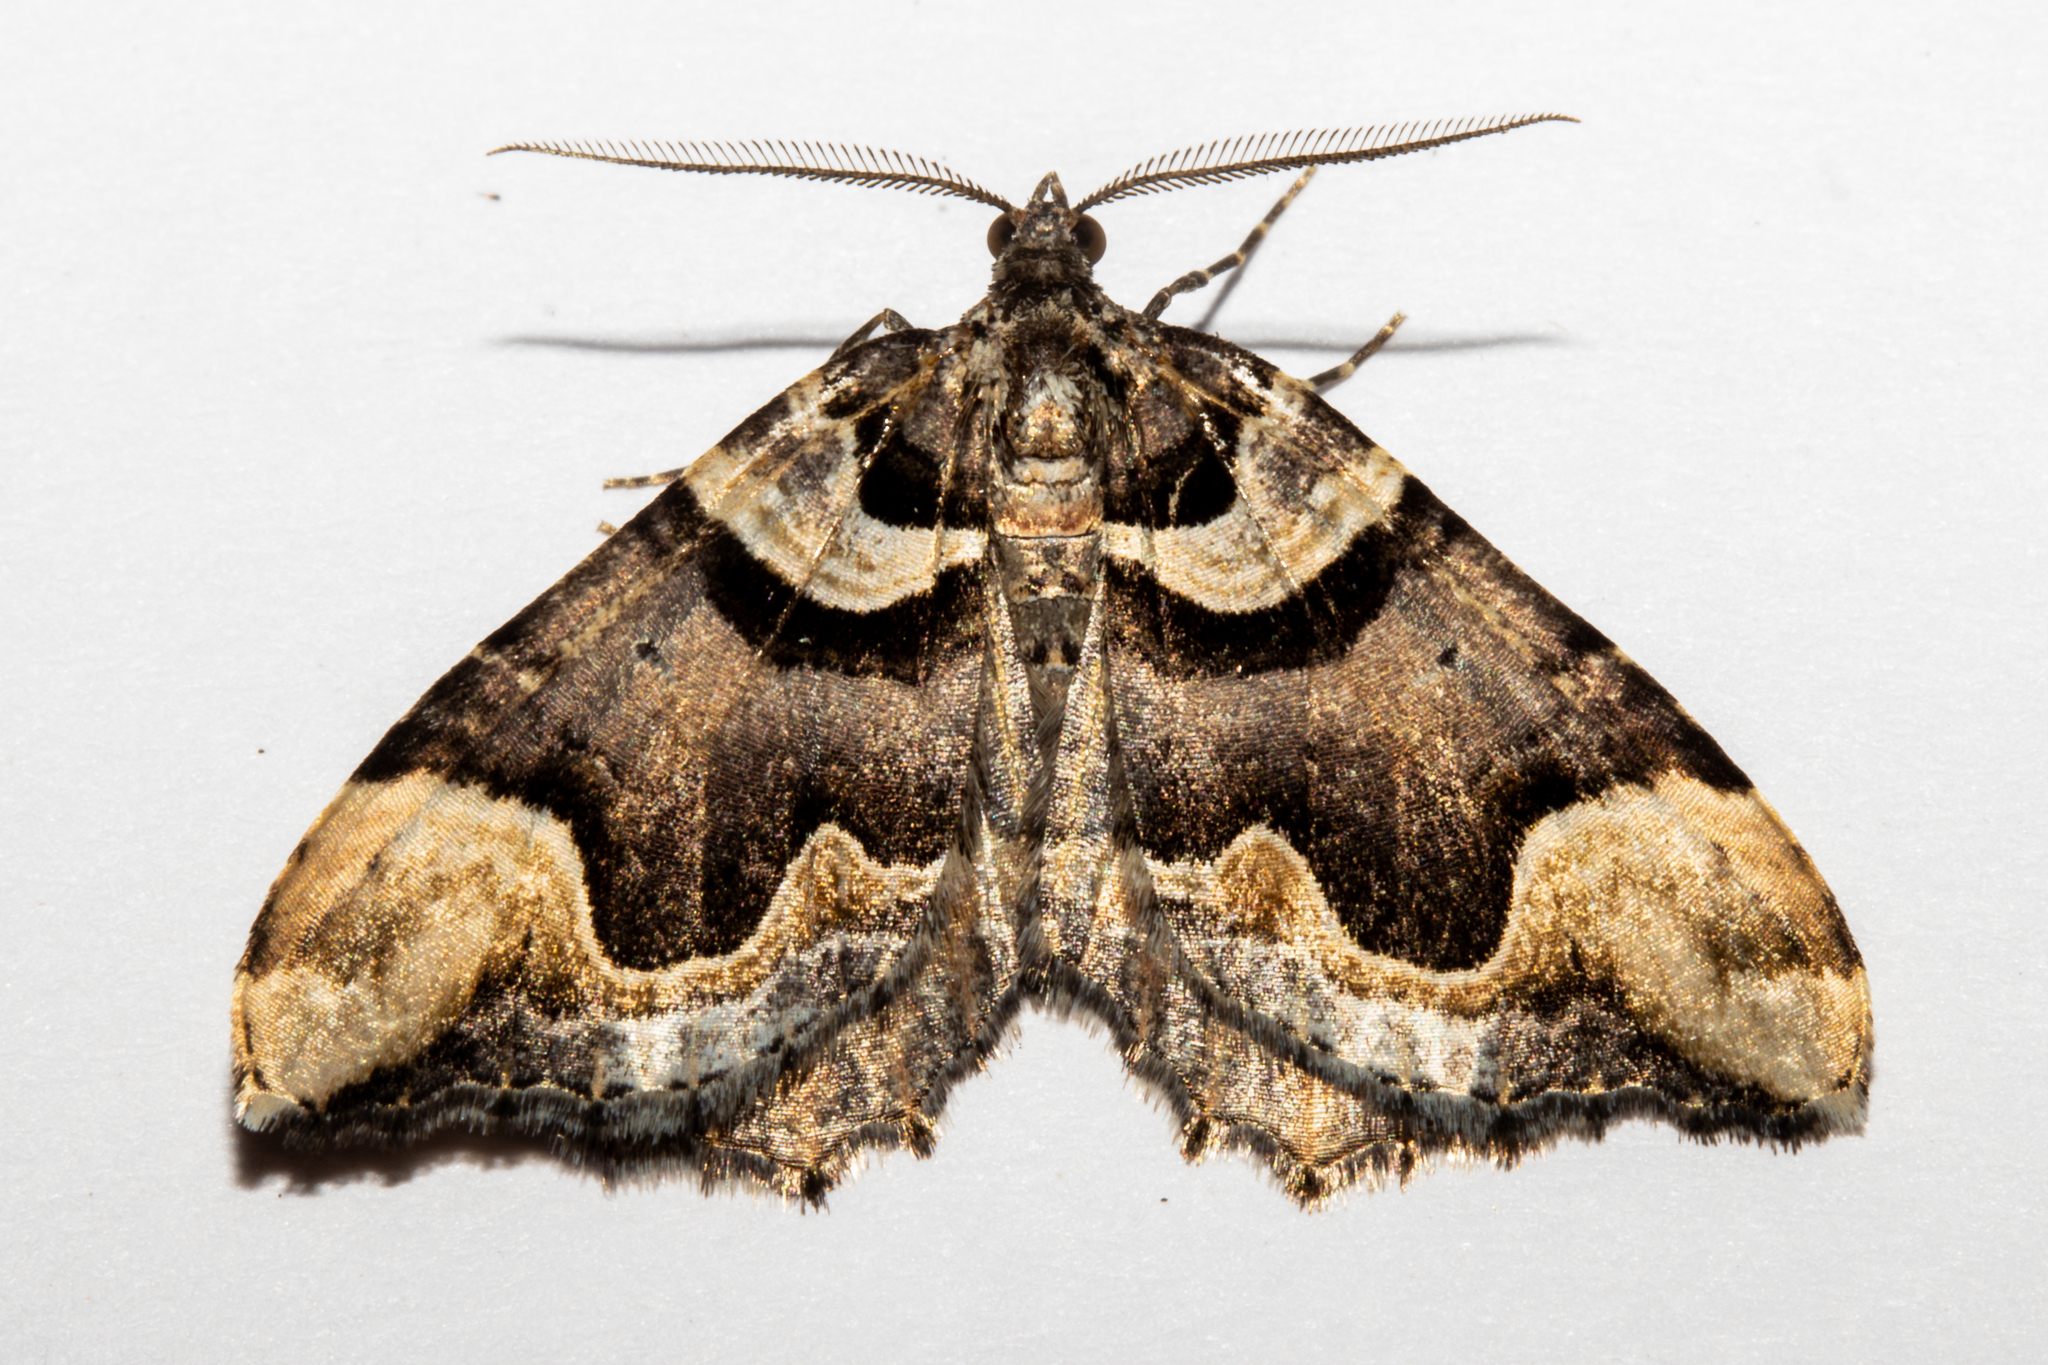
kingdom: Animalia
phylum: Arthropoda
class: Insecta
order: Lepidoptera
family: Geometridae
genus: Asaphodes
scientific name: Asaphodes chlamydota
